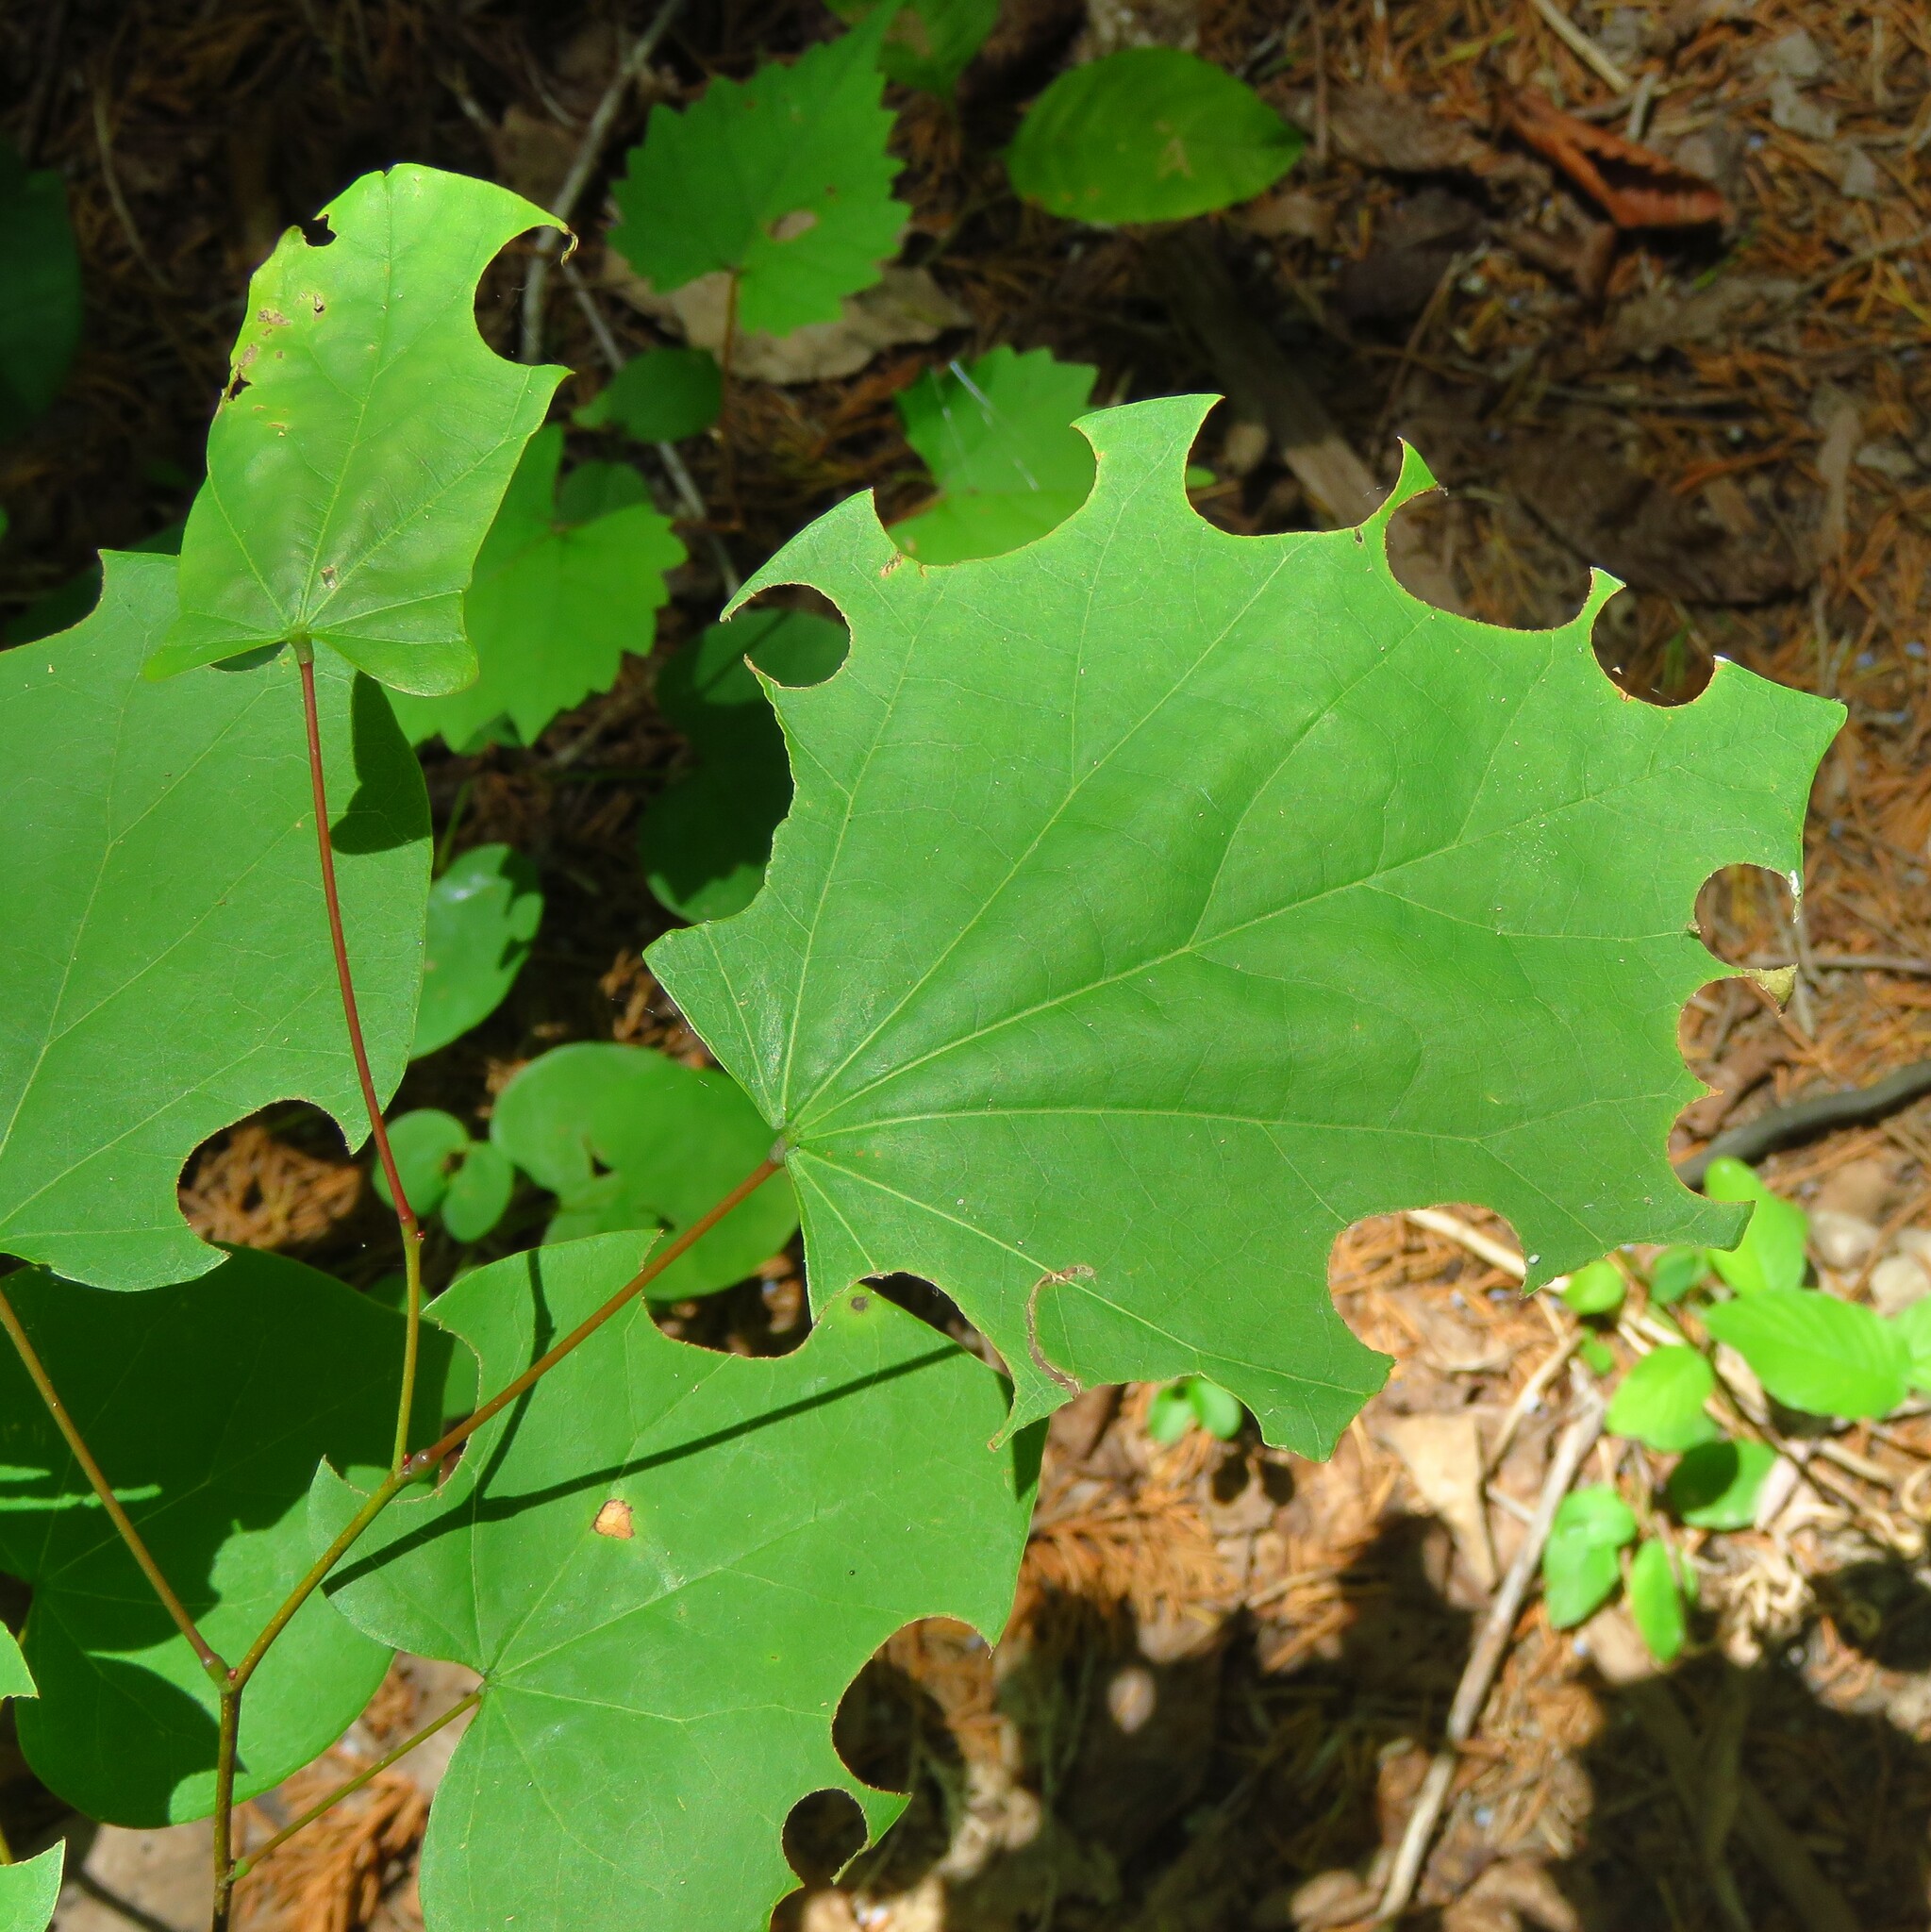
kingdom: Plantae
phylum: Tracheophyta
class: Magnoliopsida
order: Fabales
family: Fabaceae
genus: Cercis
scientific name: Cercis canadensis
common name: Eastern redbud
